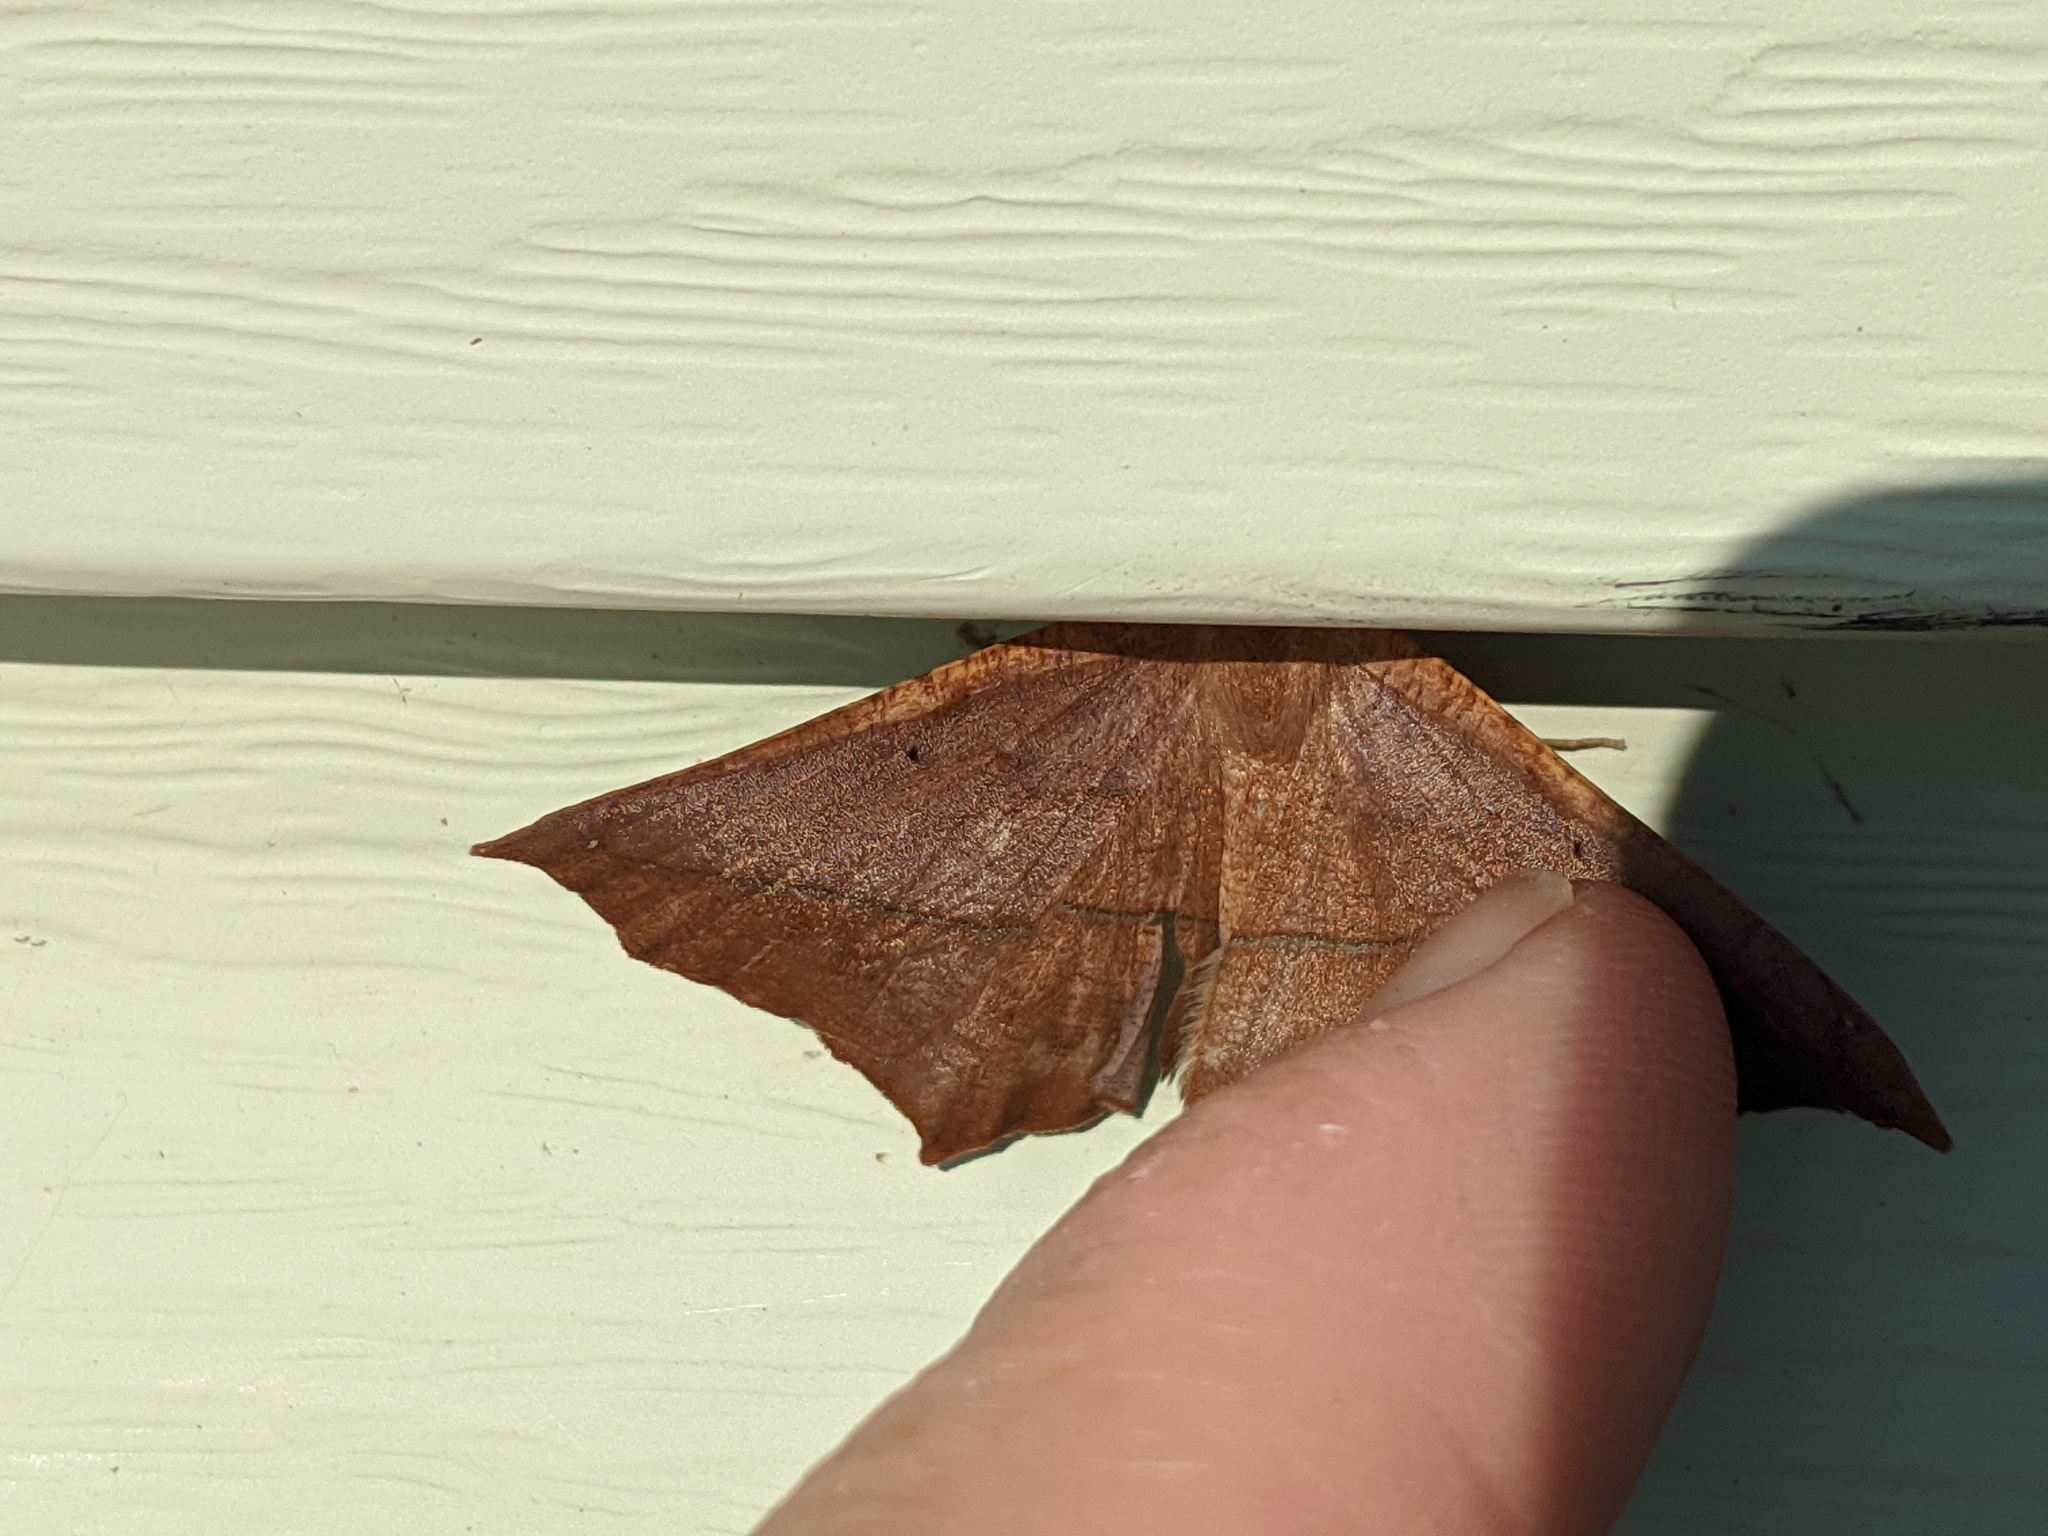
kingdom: Animalia
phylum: Arthropoda
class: Insecta
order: Lepidoptera
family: Geometridae
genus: Prochoerodes
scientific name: Prochoerodes lineola
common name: Large maple spanworm
